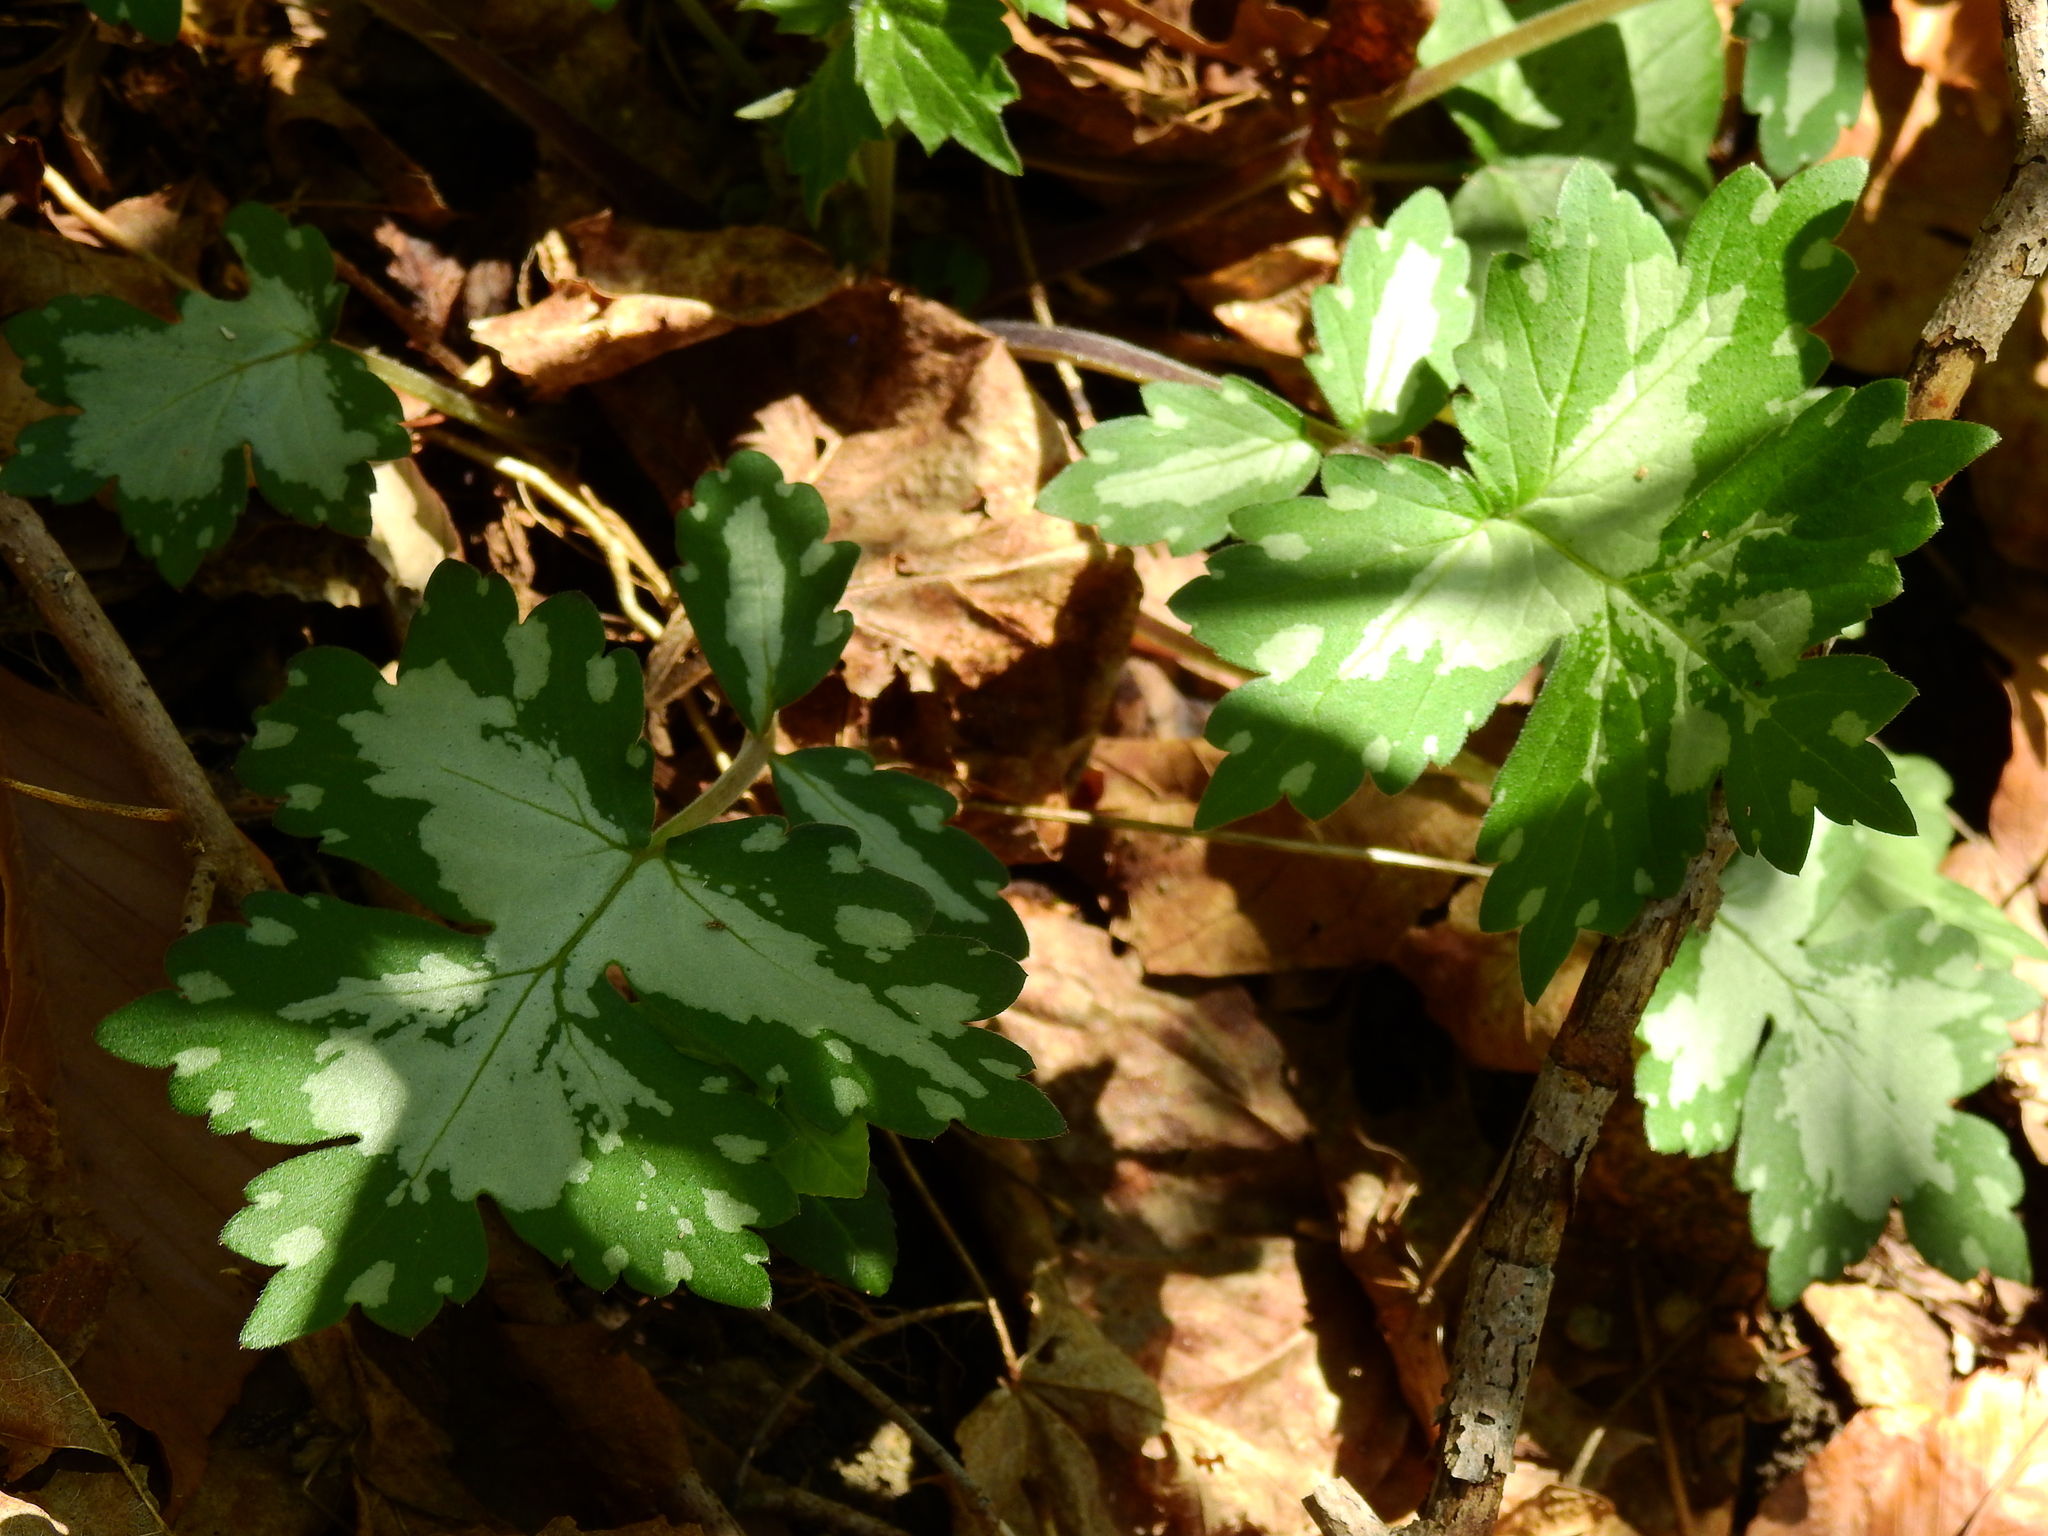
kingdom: Plantae
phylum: Tracheophyta
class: Magnoliopsida
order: Boraginales
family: Hydrophyllaceae
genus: Hydrophyllum
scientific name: Hydrophyllum appendiculatum
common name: Appendaged waterleaf
